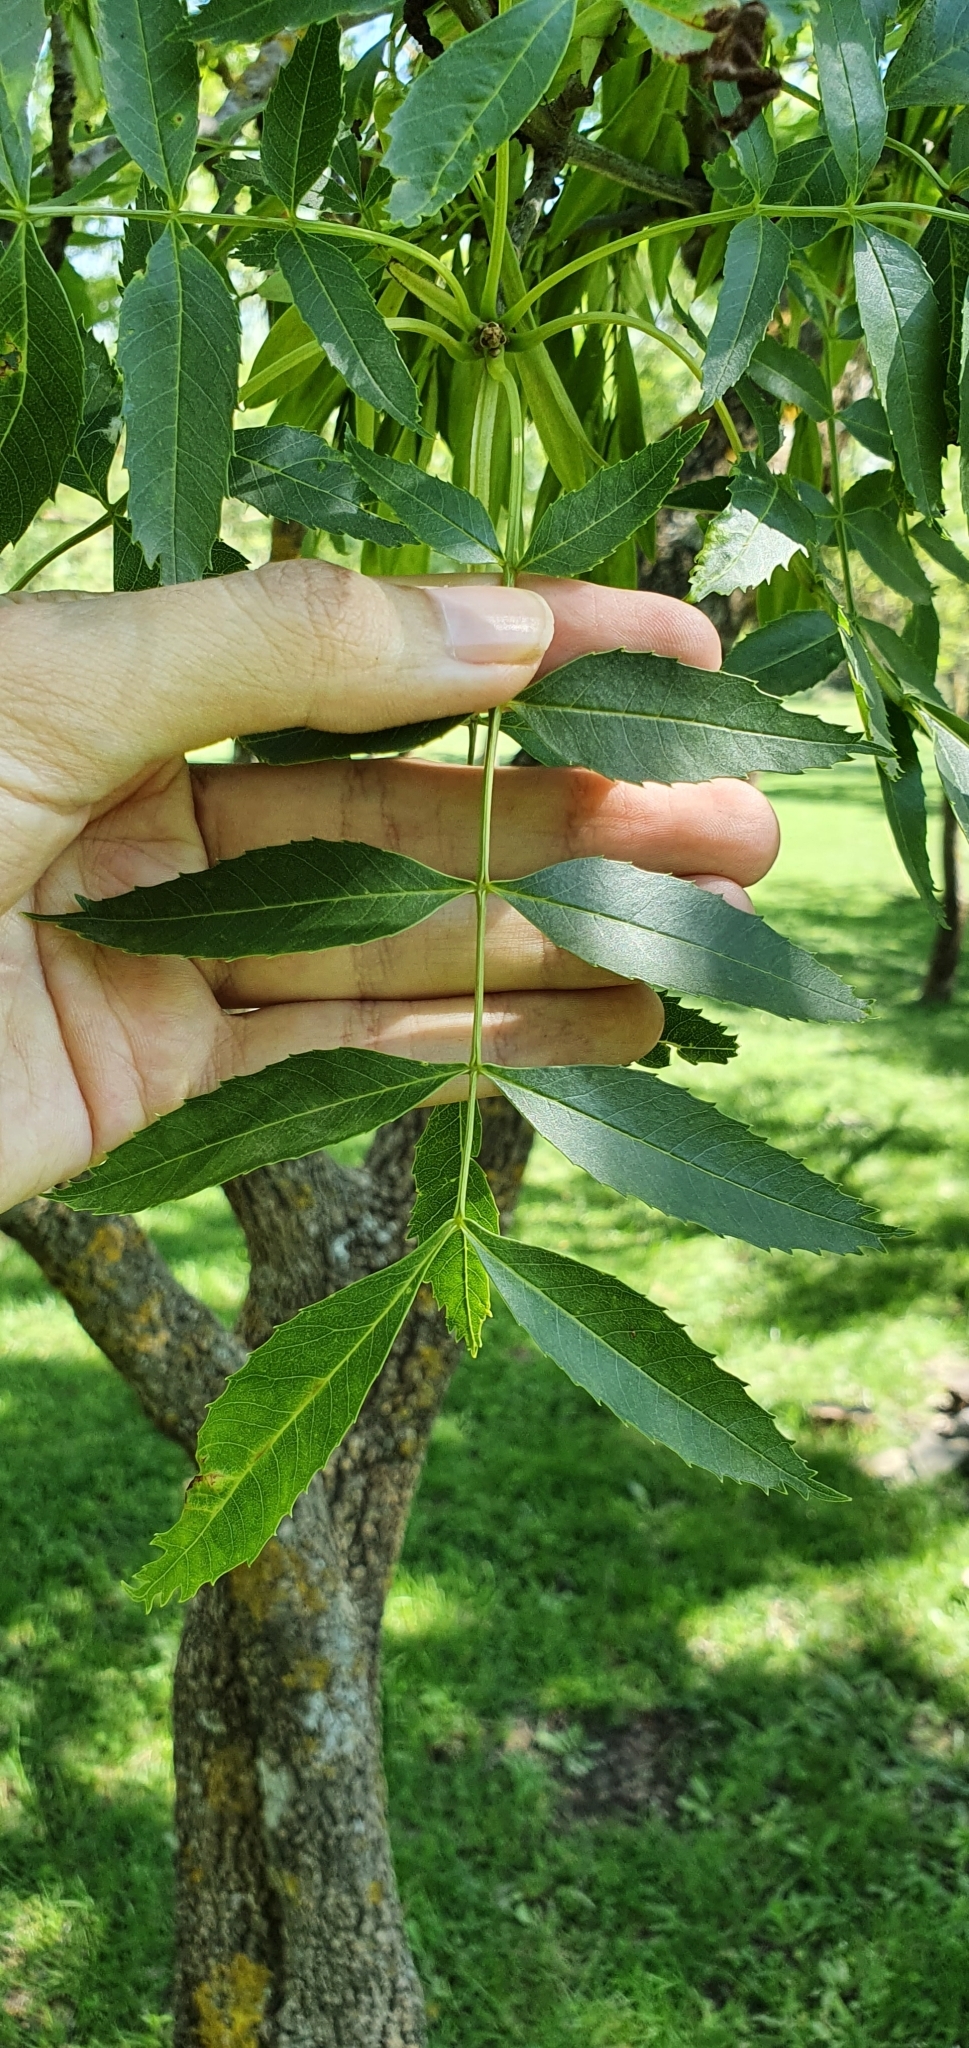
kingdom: Plantae
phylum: Tracheophyta
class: Magnoliopsida
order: Lamiales
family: Oleaceae
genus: Fraxinus
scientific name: Fraxinus angustifolia
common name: Narrow-leafed ash
